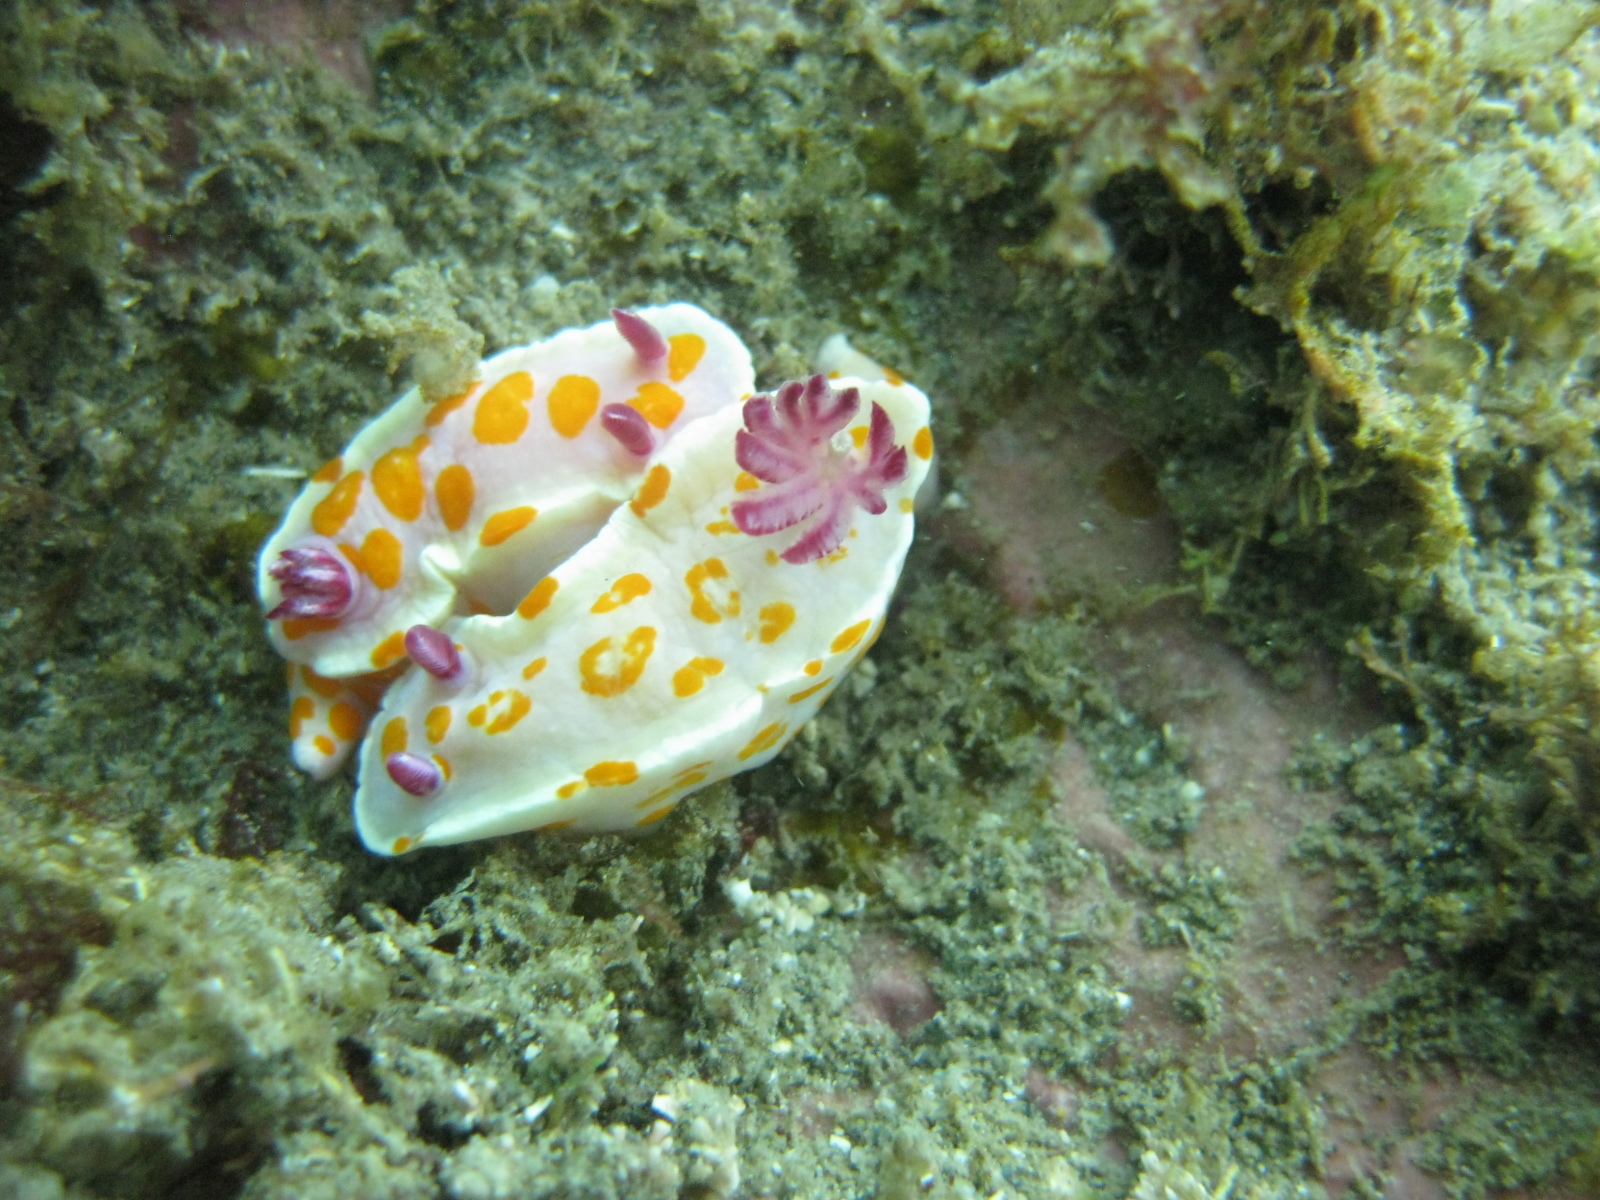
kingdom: Animalia
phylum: Mollusca
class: Gastropoda
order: Nudibranchia
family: Chromodorididae
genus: Ceratosoma
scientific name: Ceratosoma amoenum
